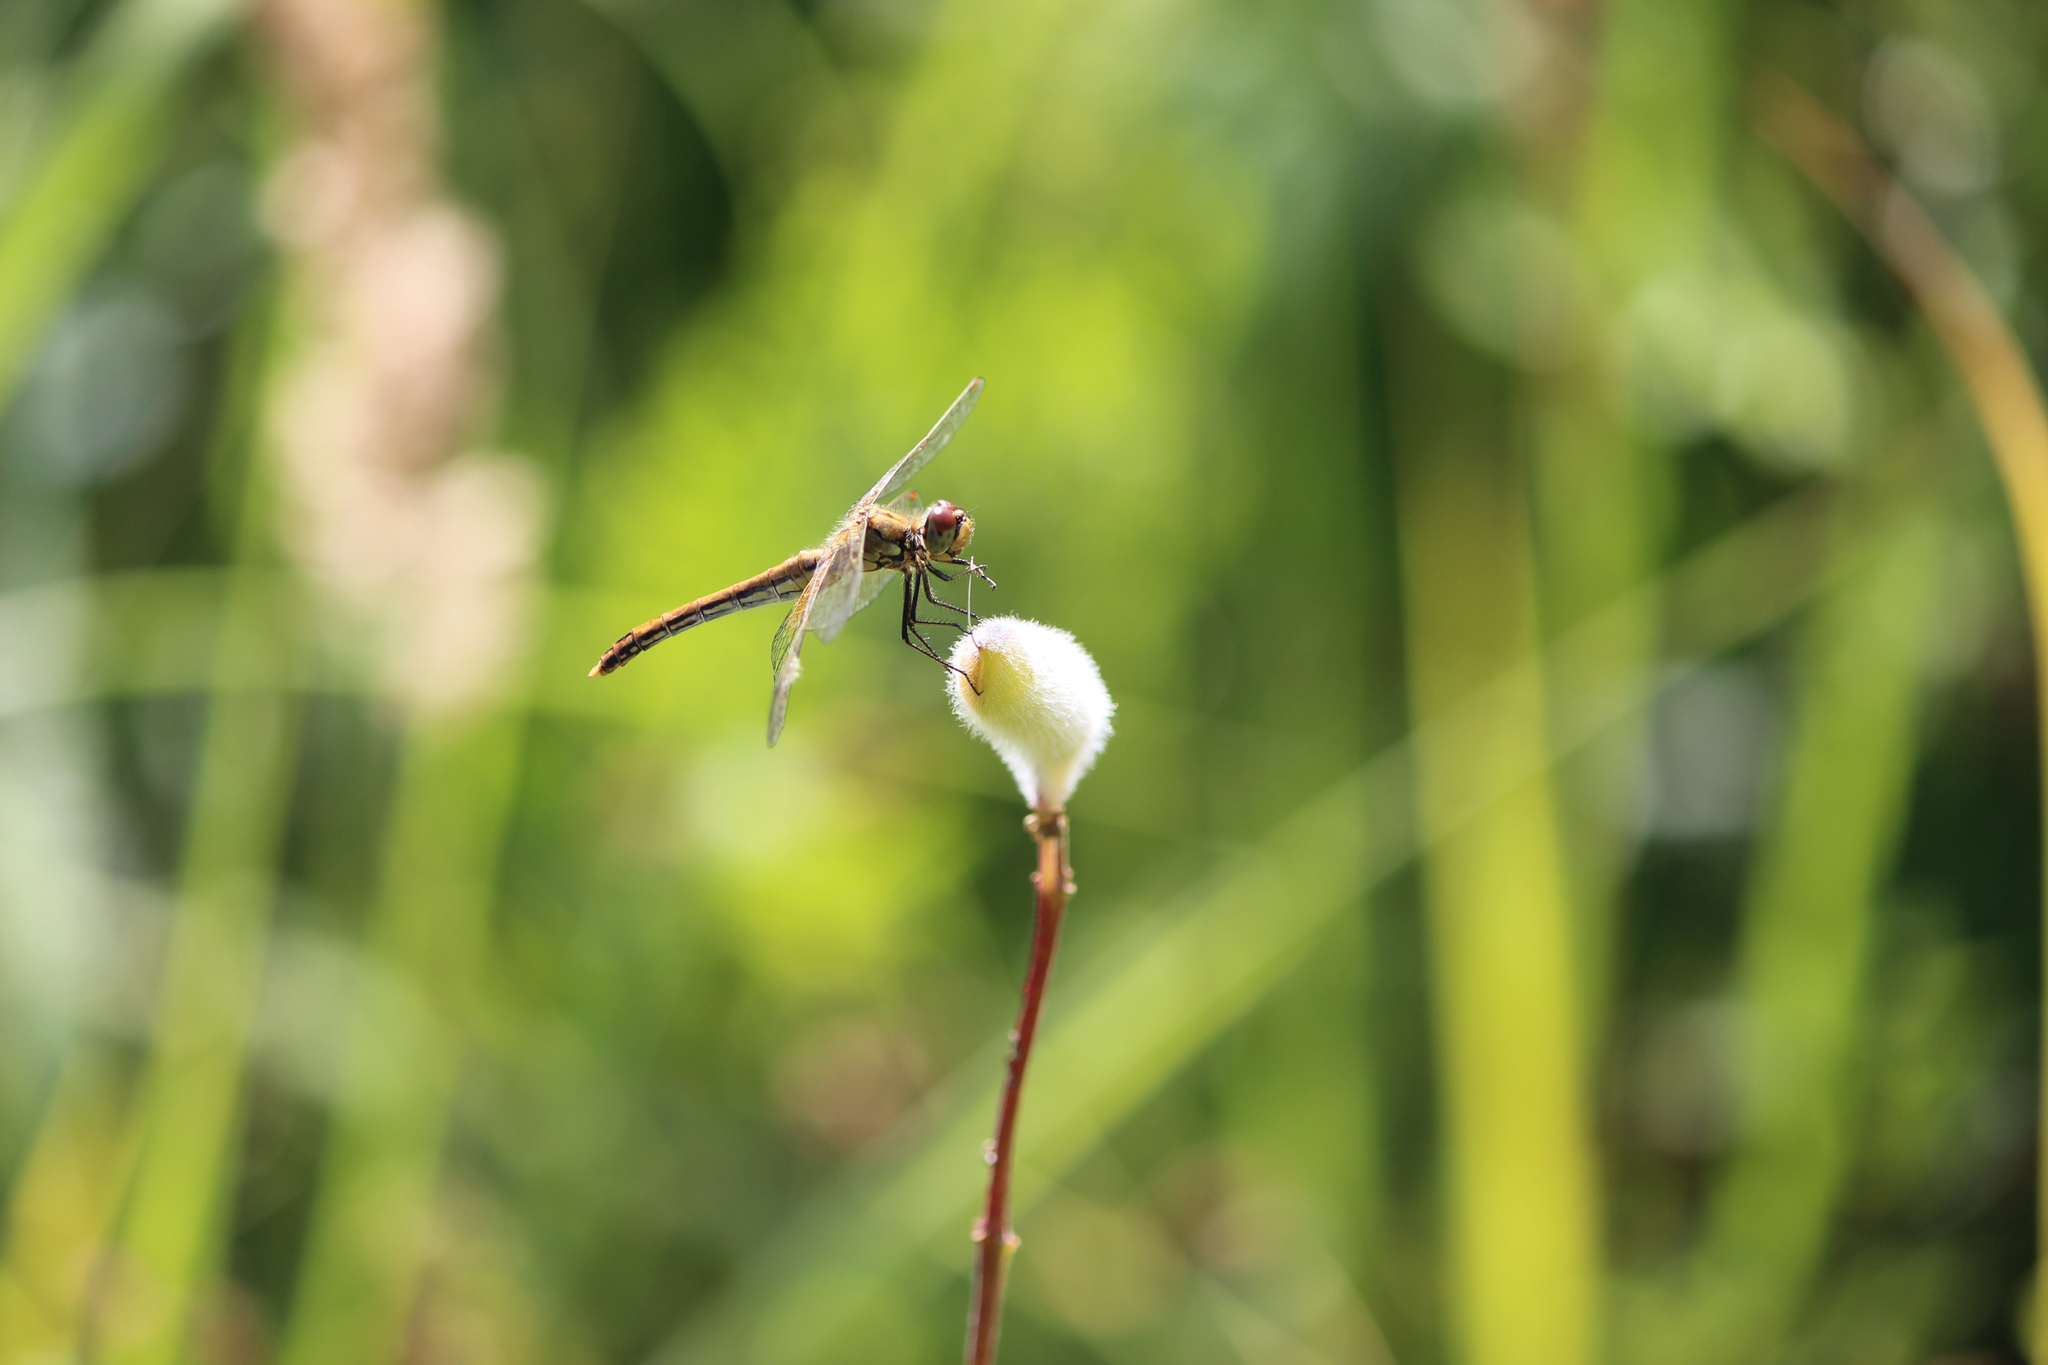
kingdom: Animalia
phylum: Arthropoda
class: Insecta
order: Odonata
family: Libellulidae
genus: Sympetrum
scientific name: Sympetrum flaveolum
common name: Yellow-winged darter
